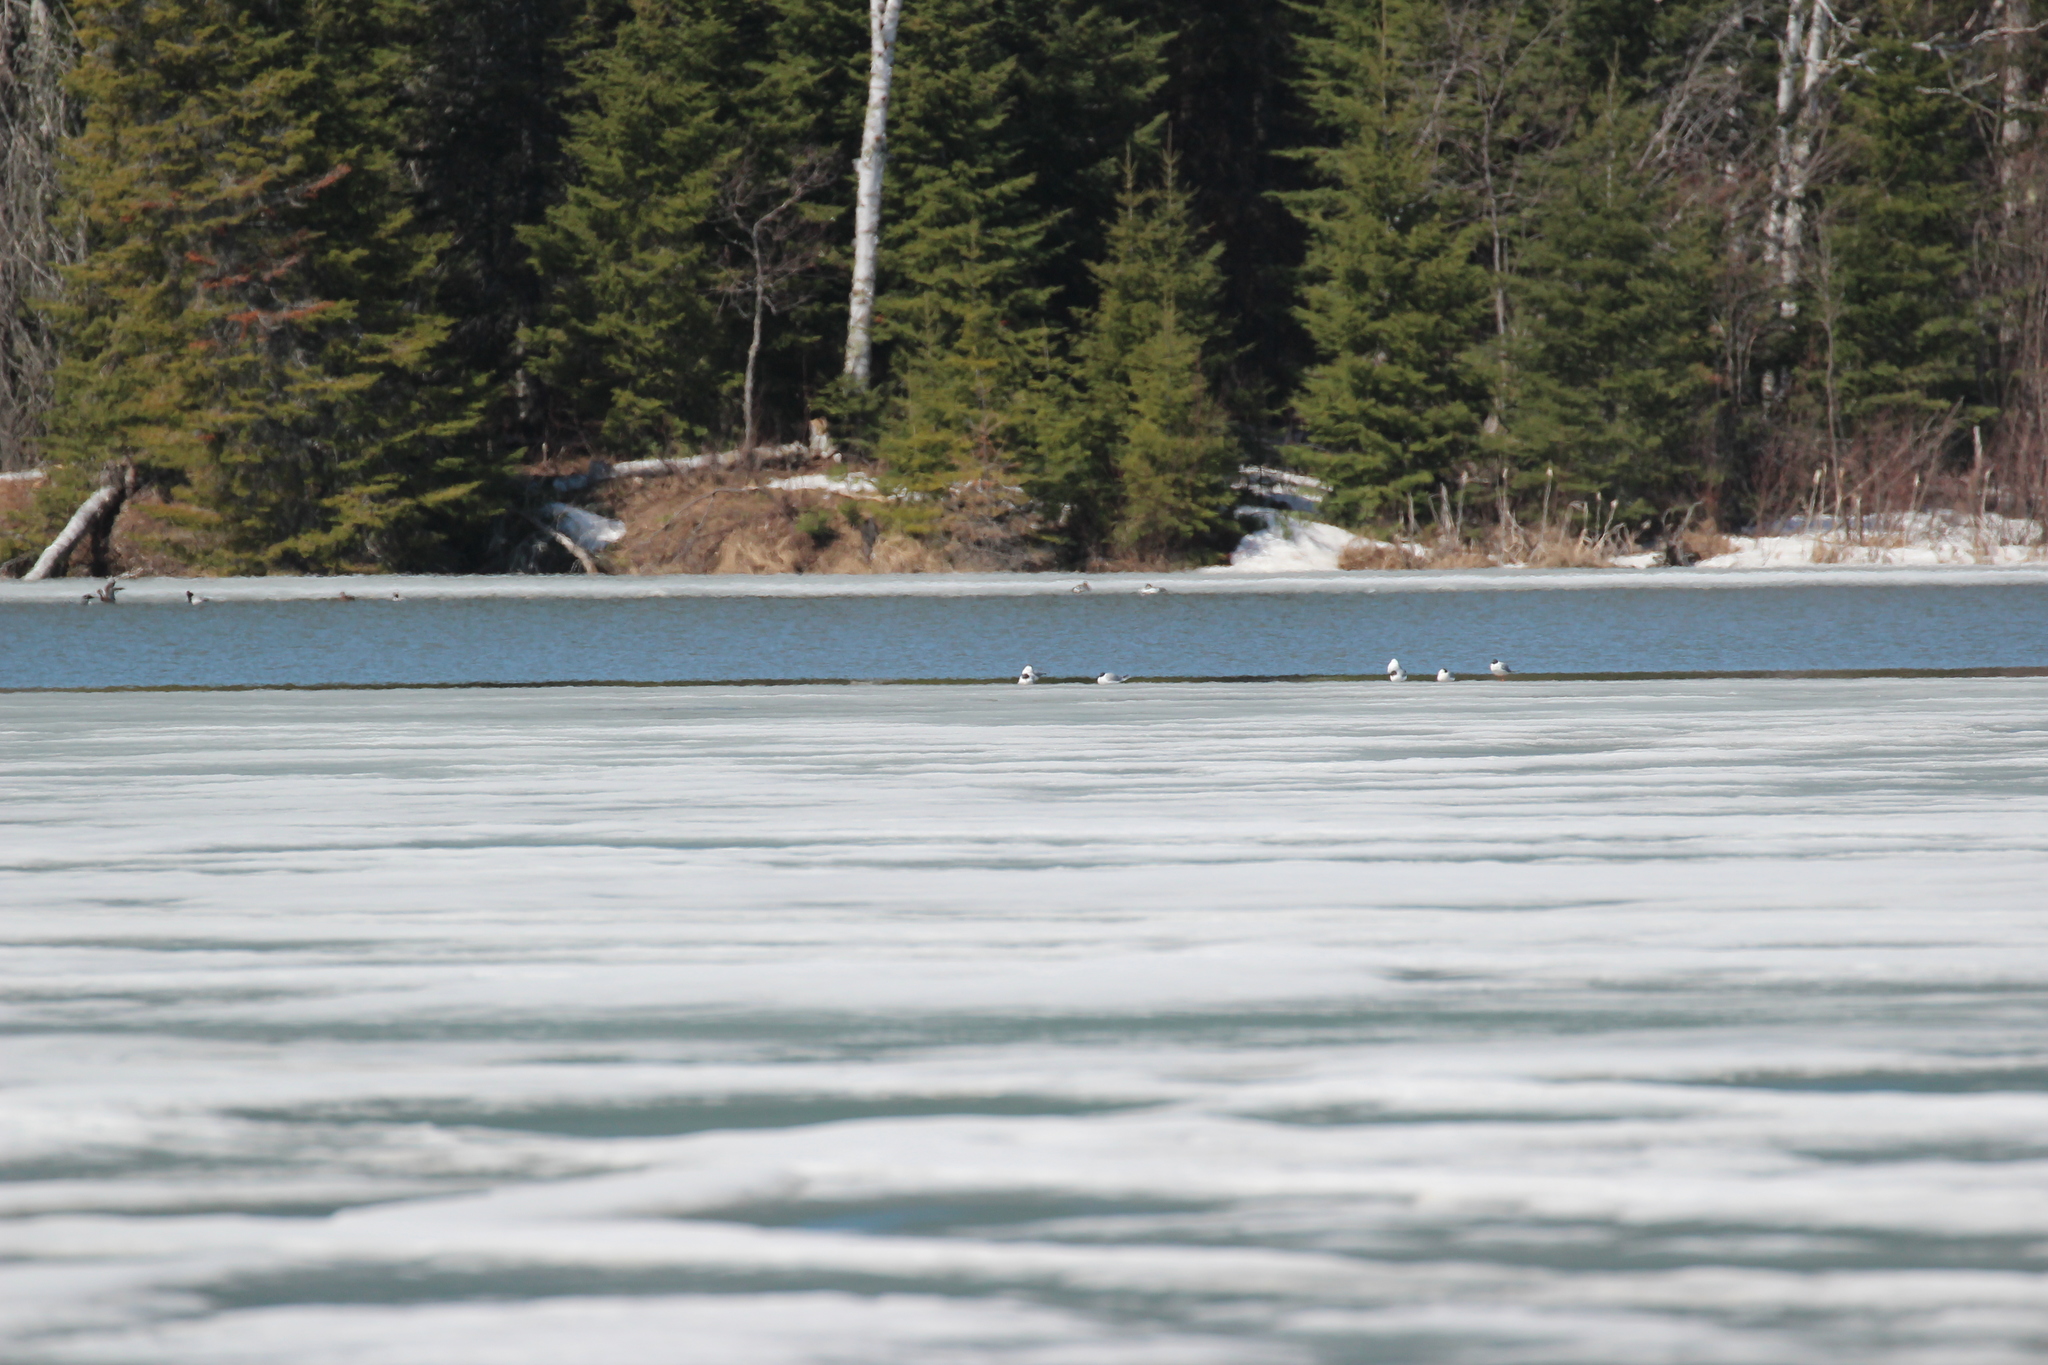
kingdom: Animalia
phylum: Chordata
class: Aves
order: Charadriiformes
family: Laridae
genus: Chroicocephalus
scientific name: Chroicocephalus philadelphia
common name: Bonaparte's gull
